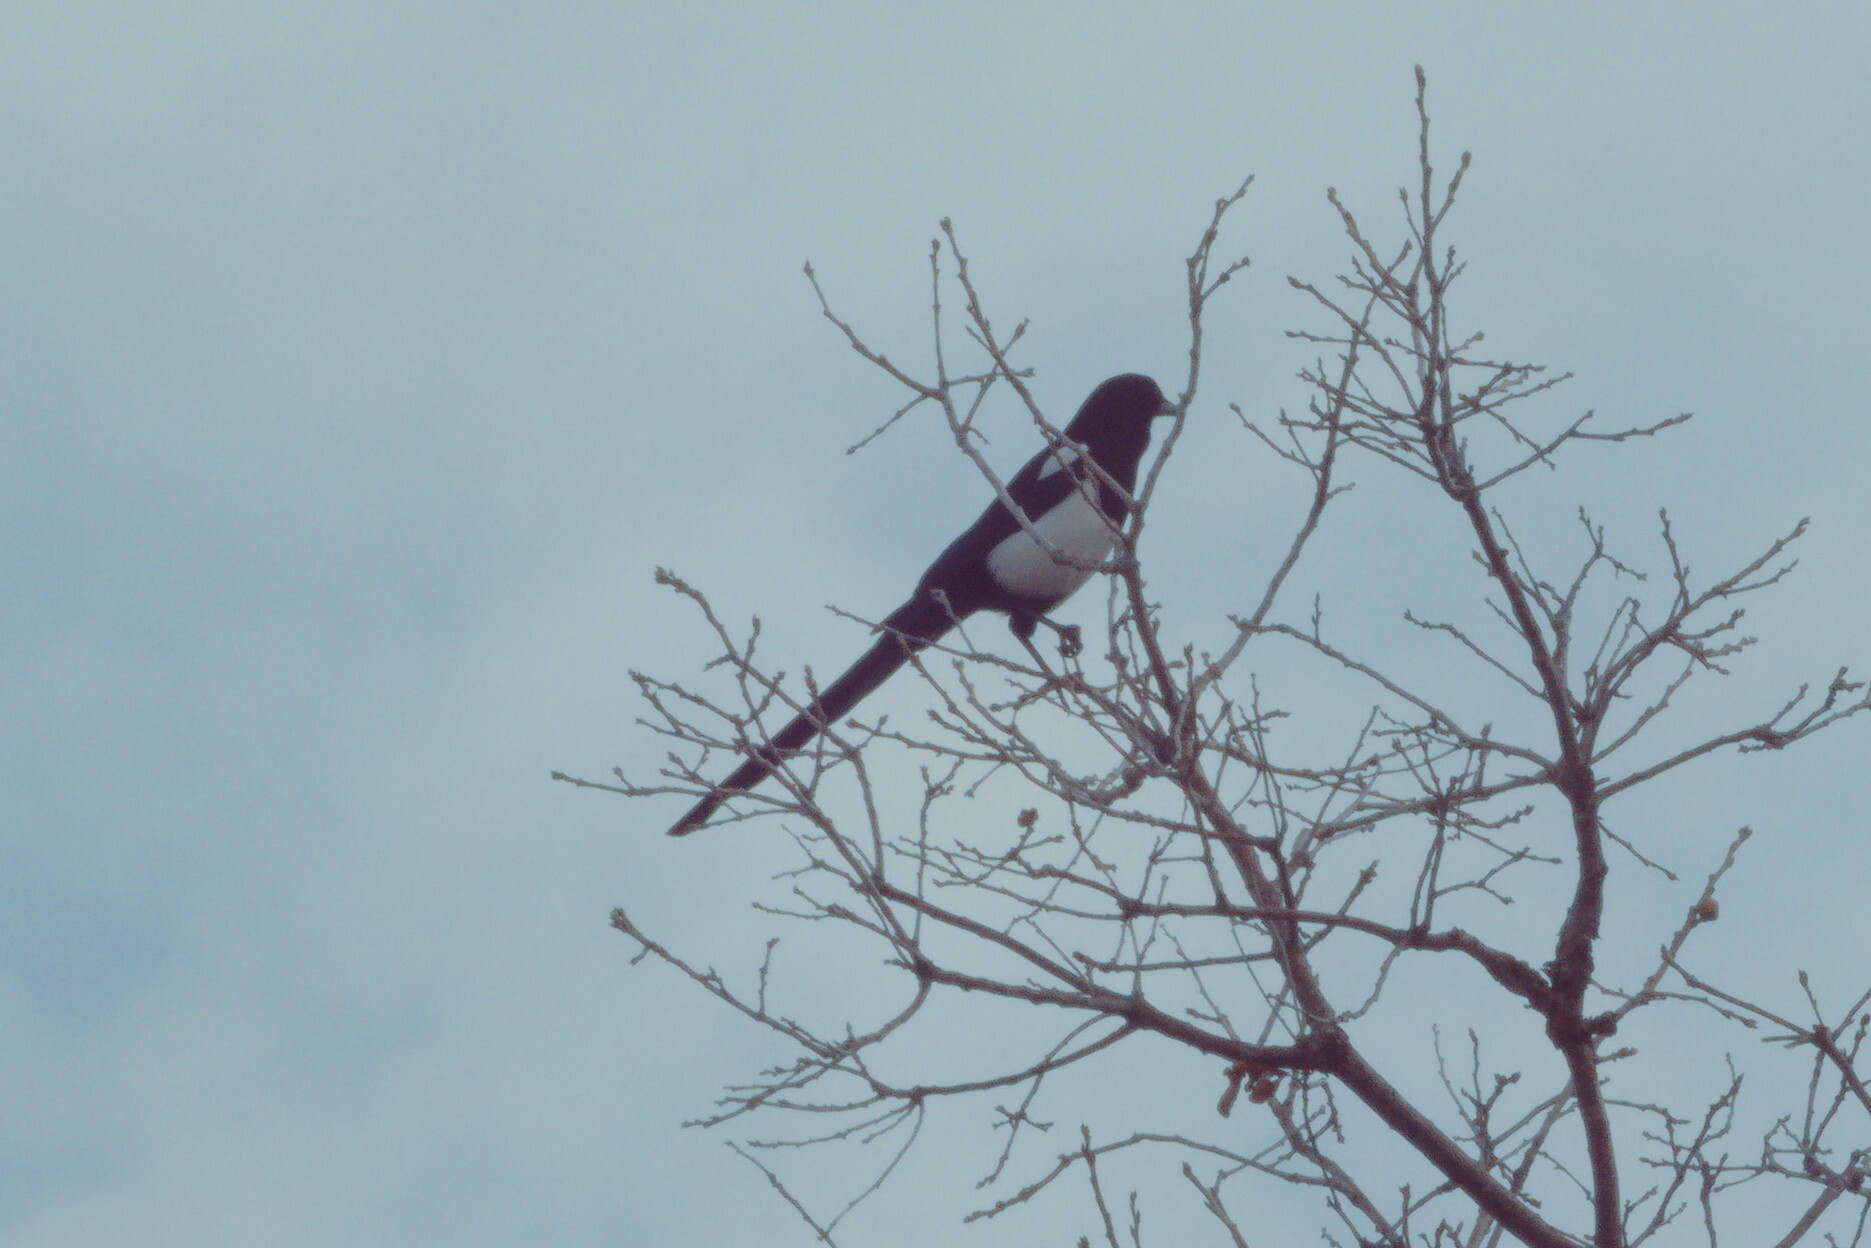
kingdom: Animalia
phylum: Chordata
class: Aves
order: Passeriformes
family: Corvidae
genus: Pica
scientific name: Pica hudsonia
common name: Black-billed magpie
